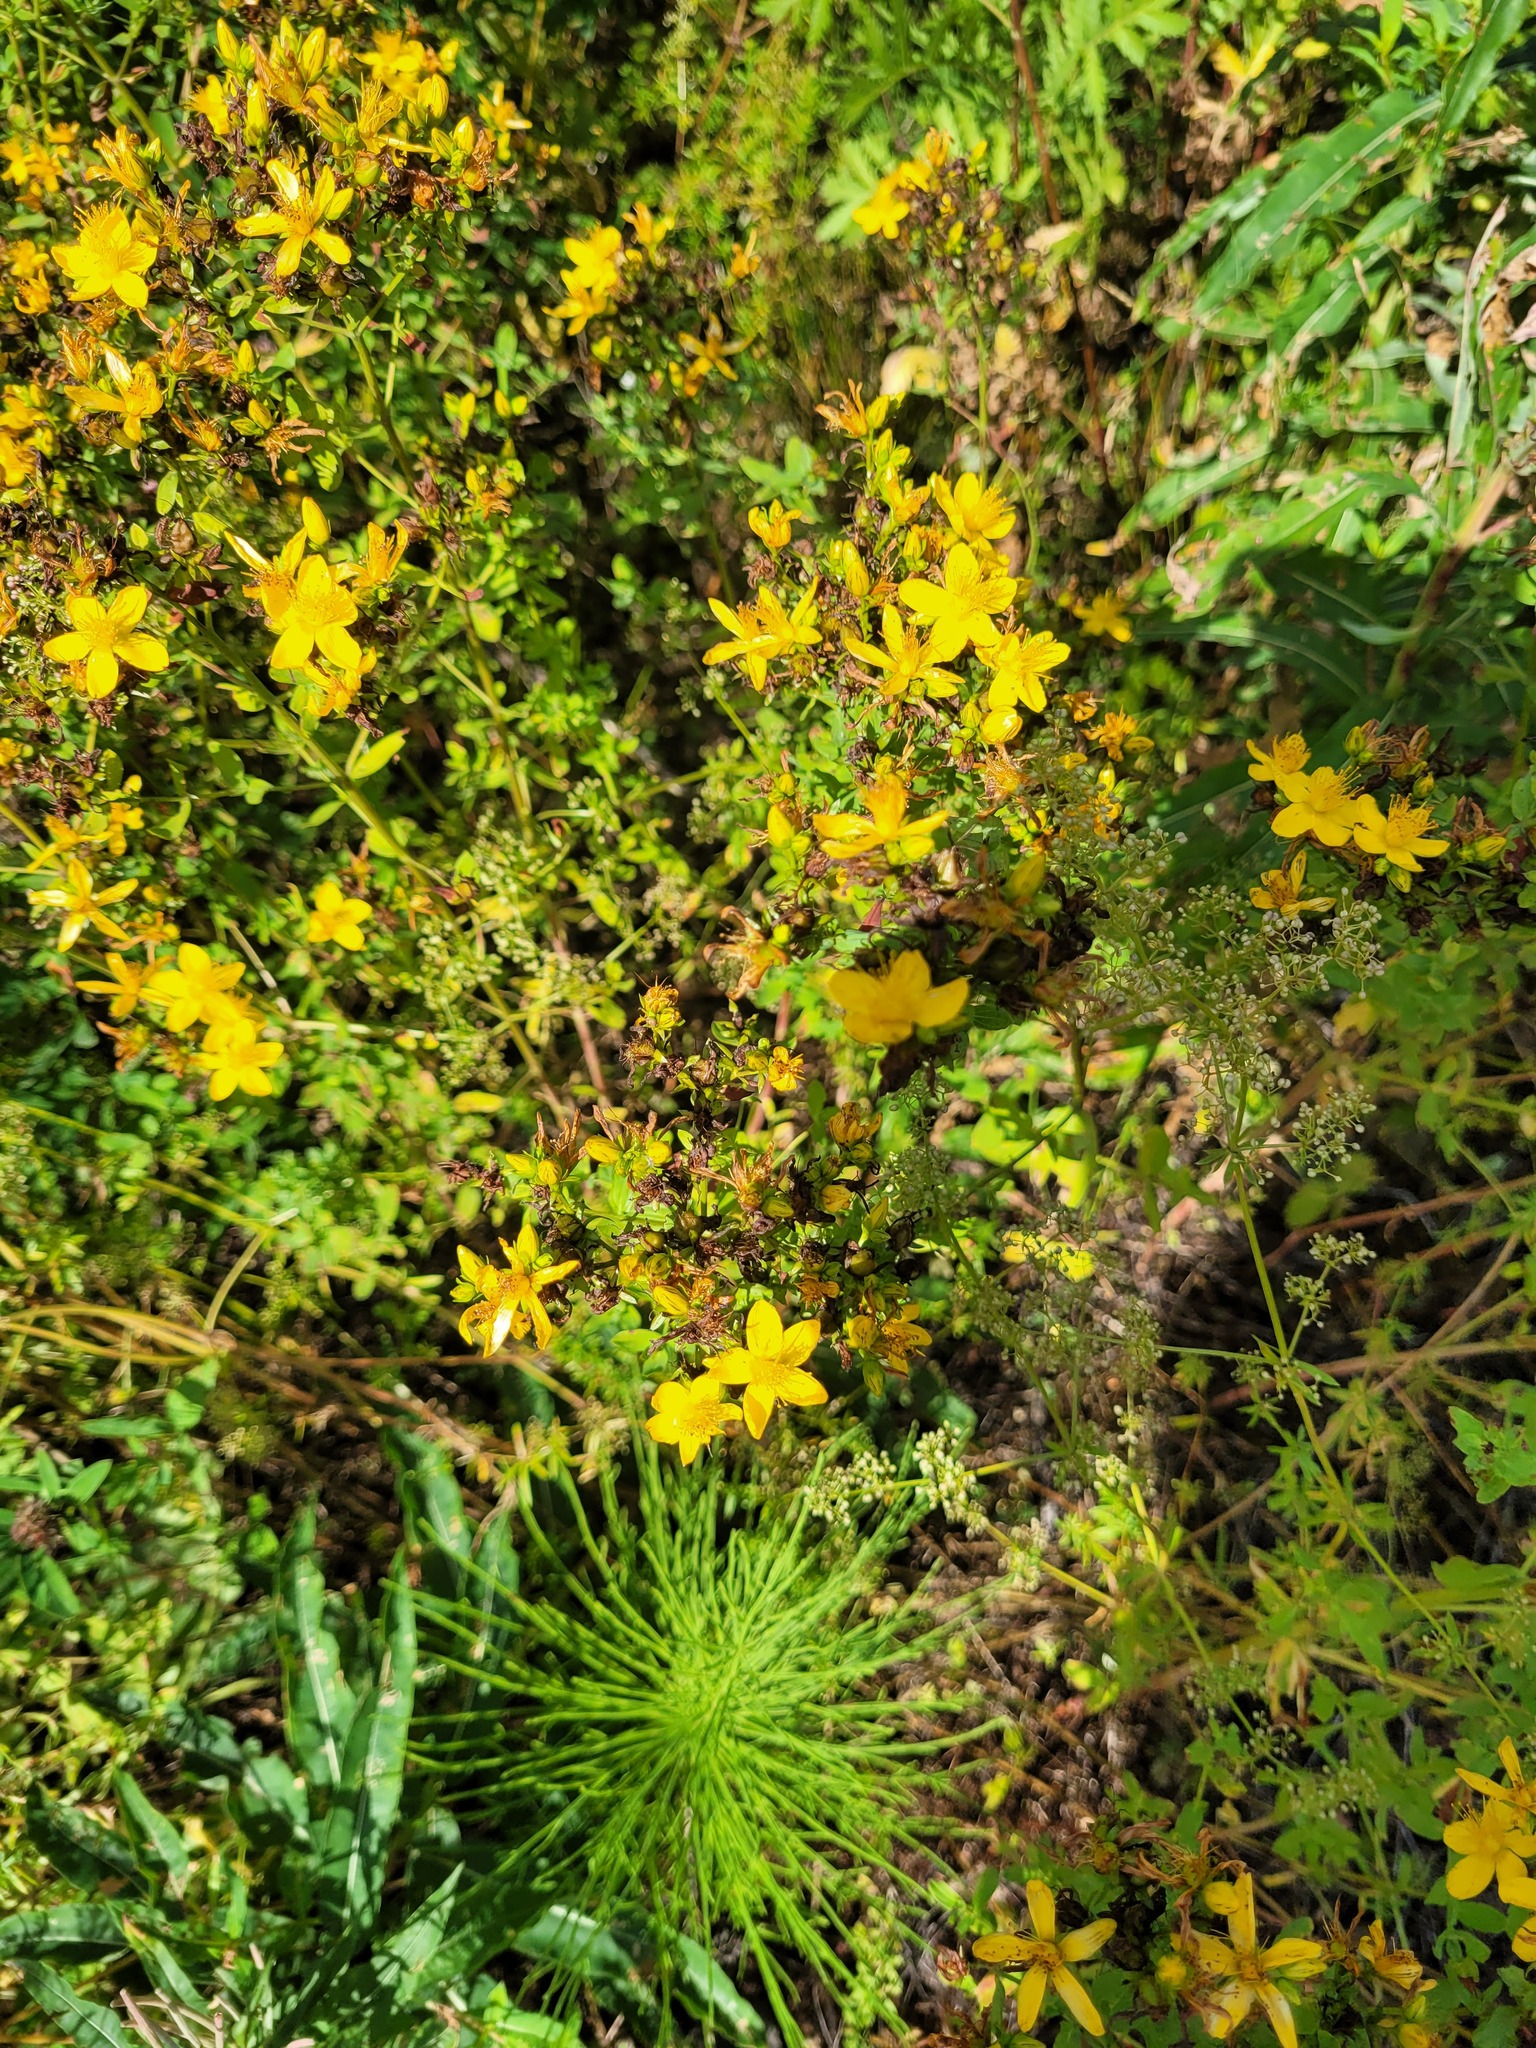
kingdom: Plantae
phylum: Tracheophyta
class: Magnoliopsida
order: Malpighiales
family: Hypericaceae
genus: Hypericum
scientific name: Hypericum perforatum
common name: Common st. johnswort
